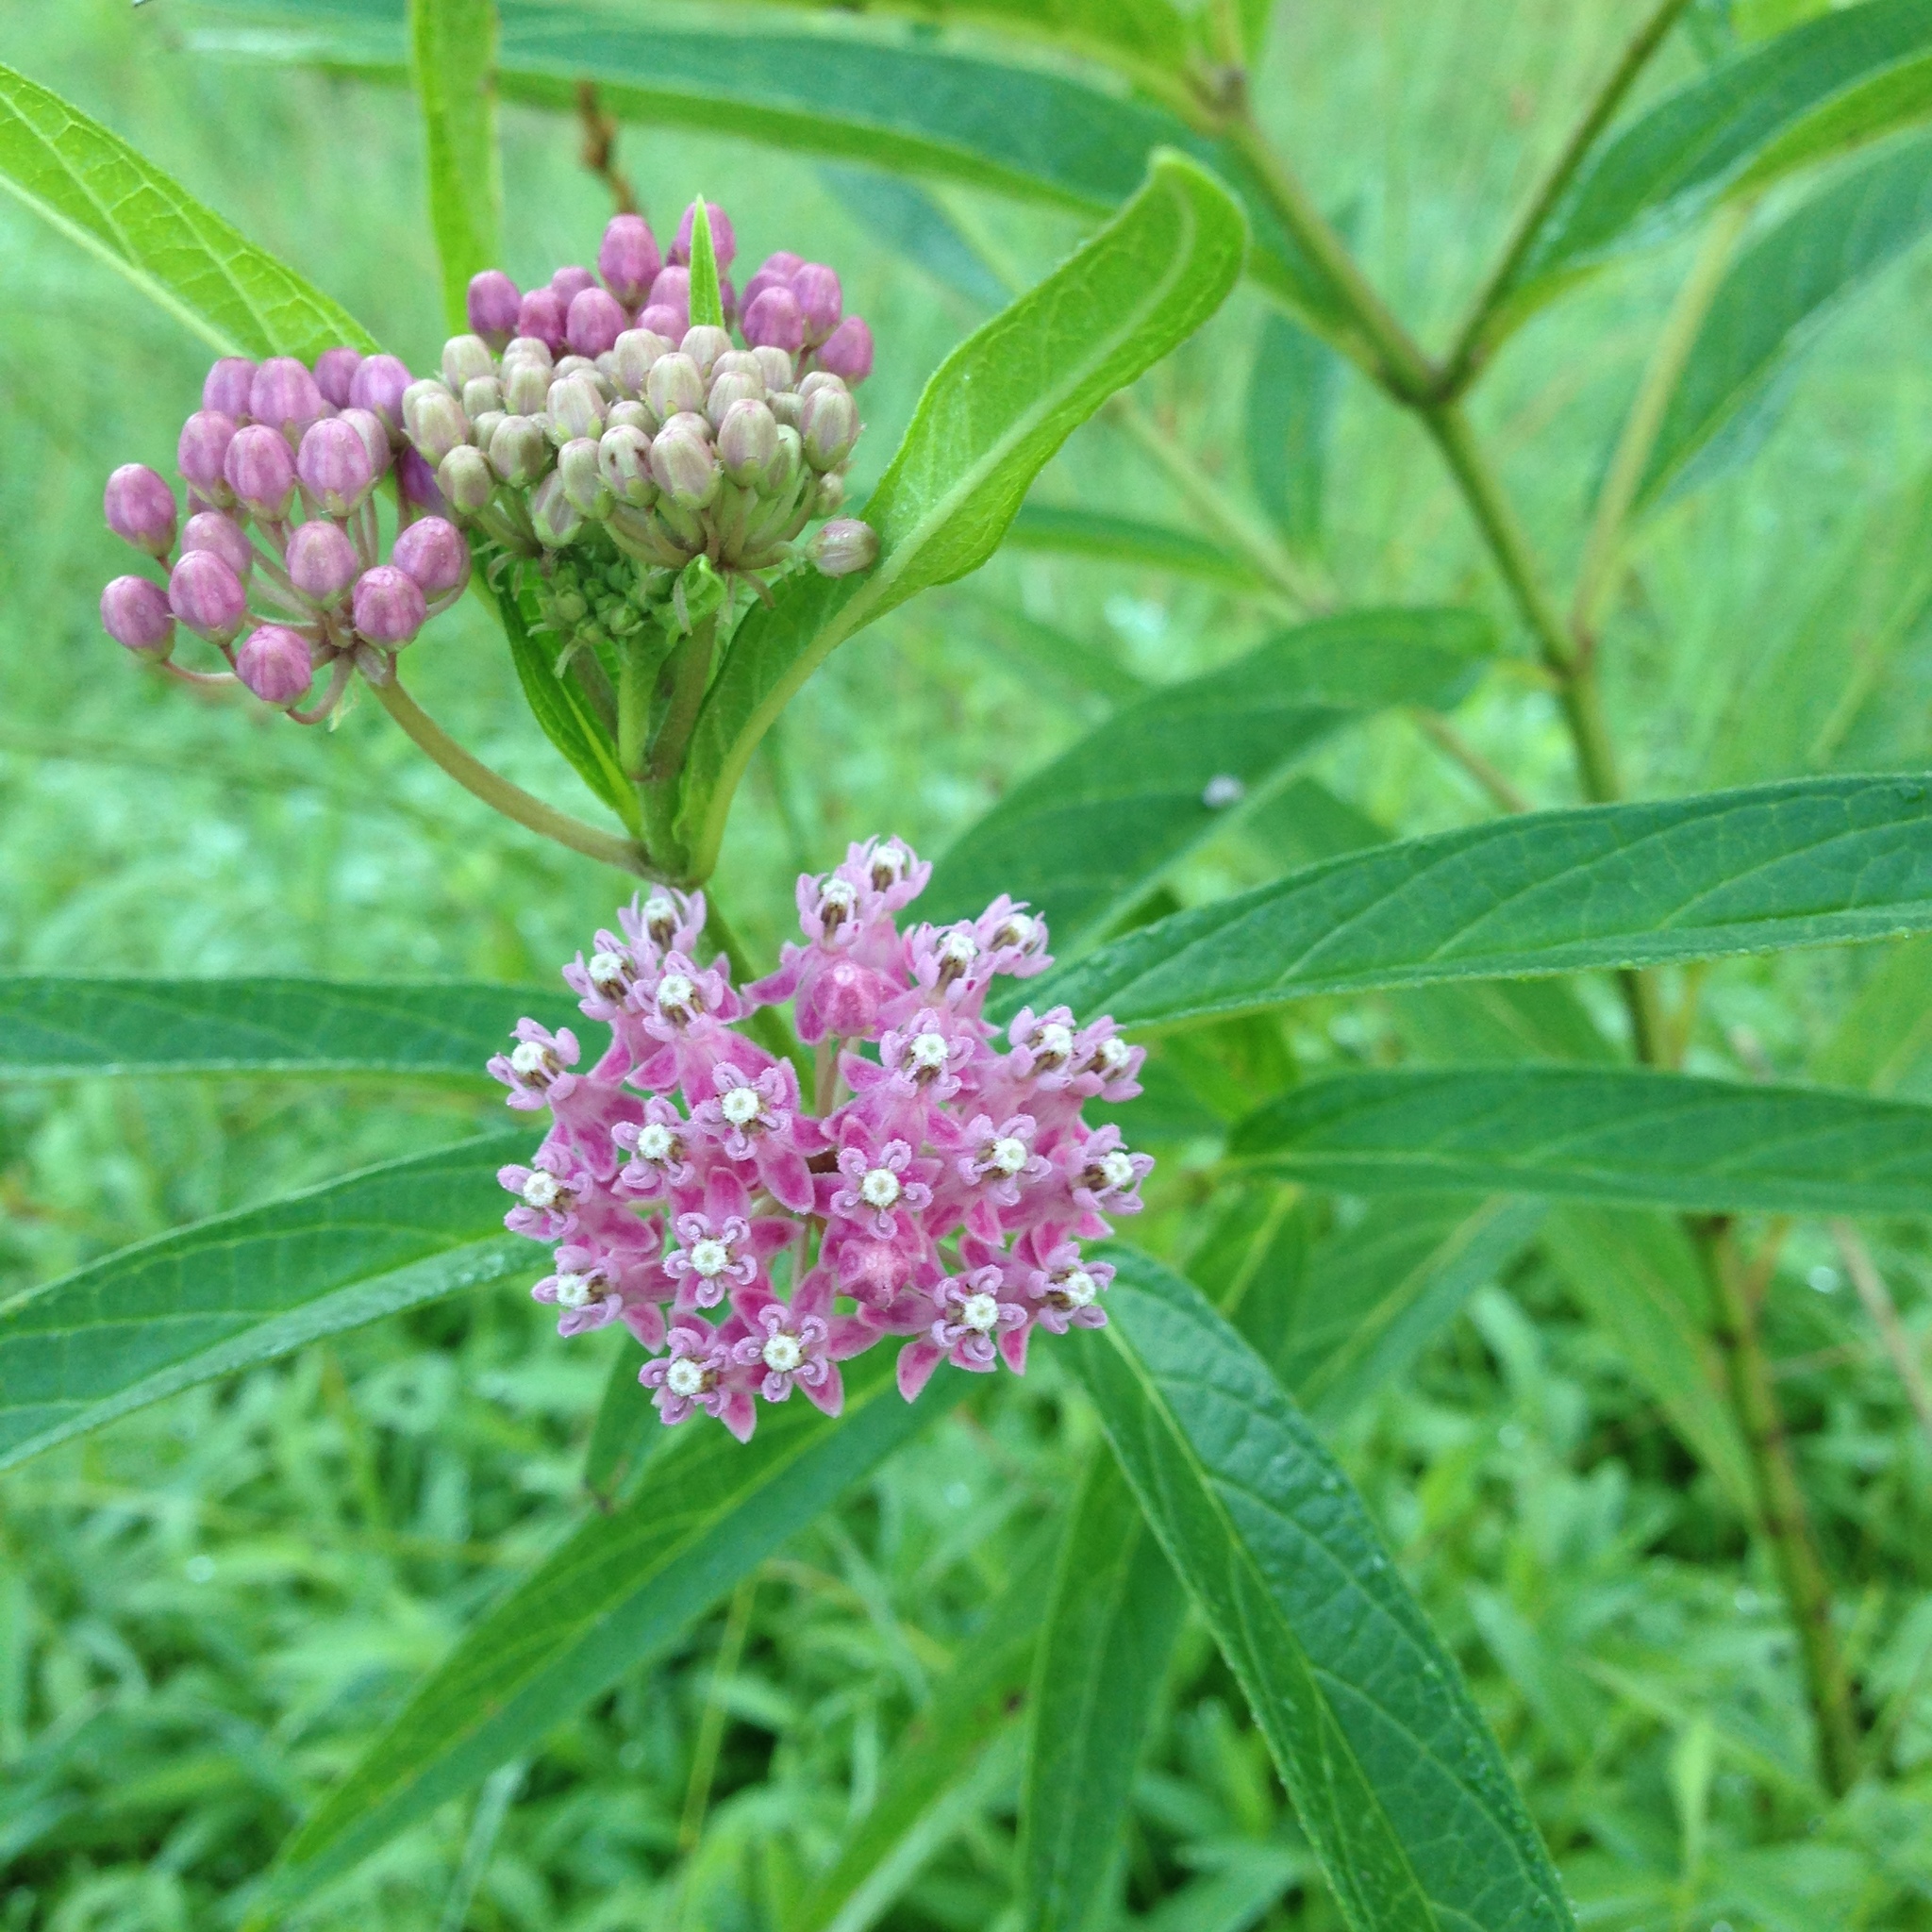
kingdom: Plantae
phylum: Tracheophyta
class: Magnoliopsida
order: Gentianales
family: Apocynaceae
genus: Asclepias
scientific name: Asclepias incarnata
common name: Swamp milkweed
